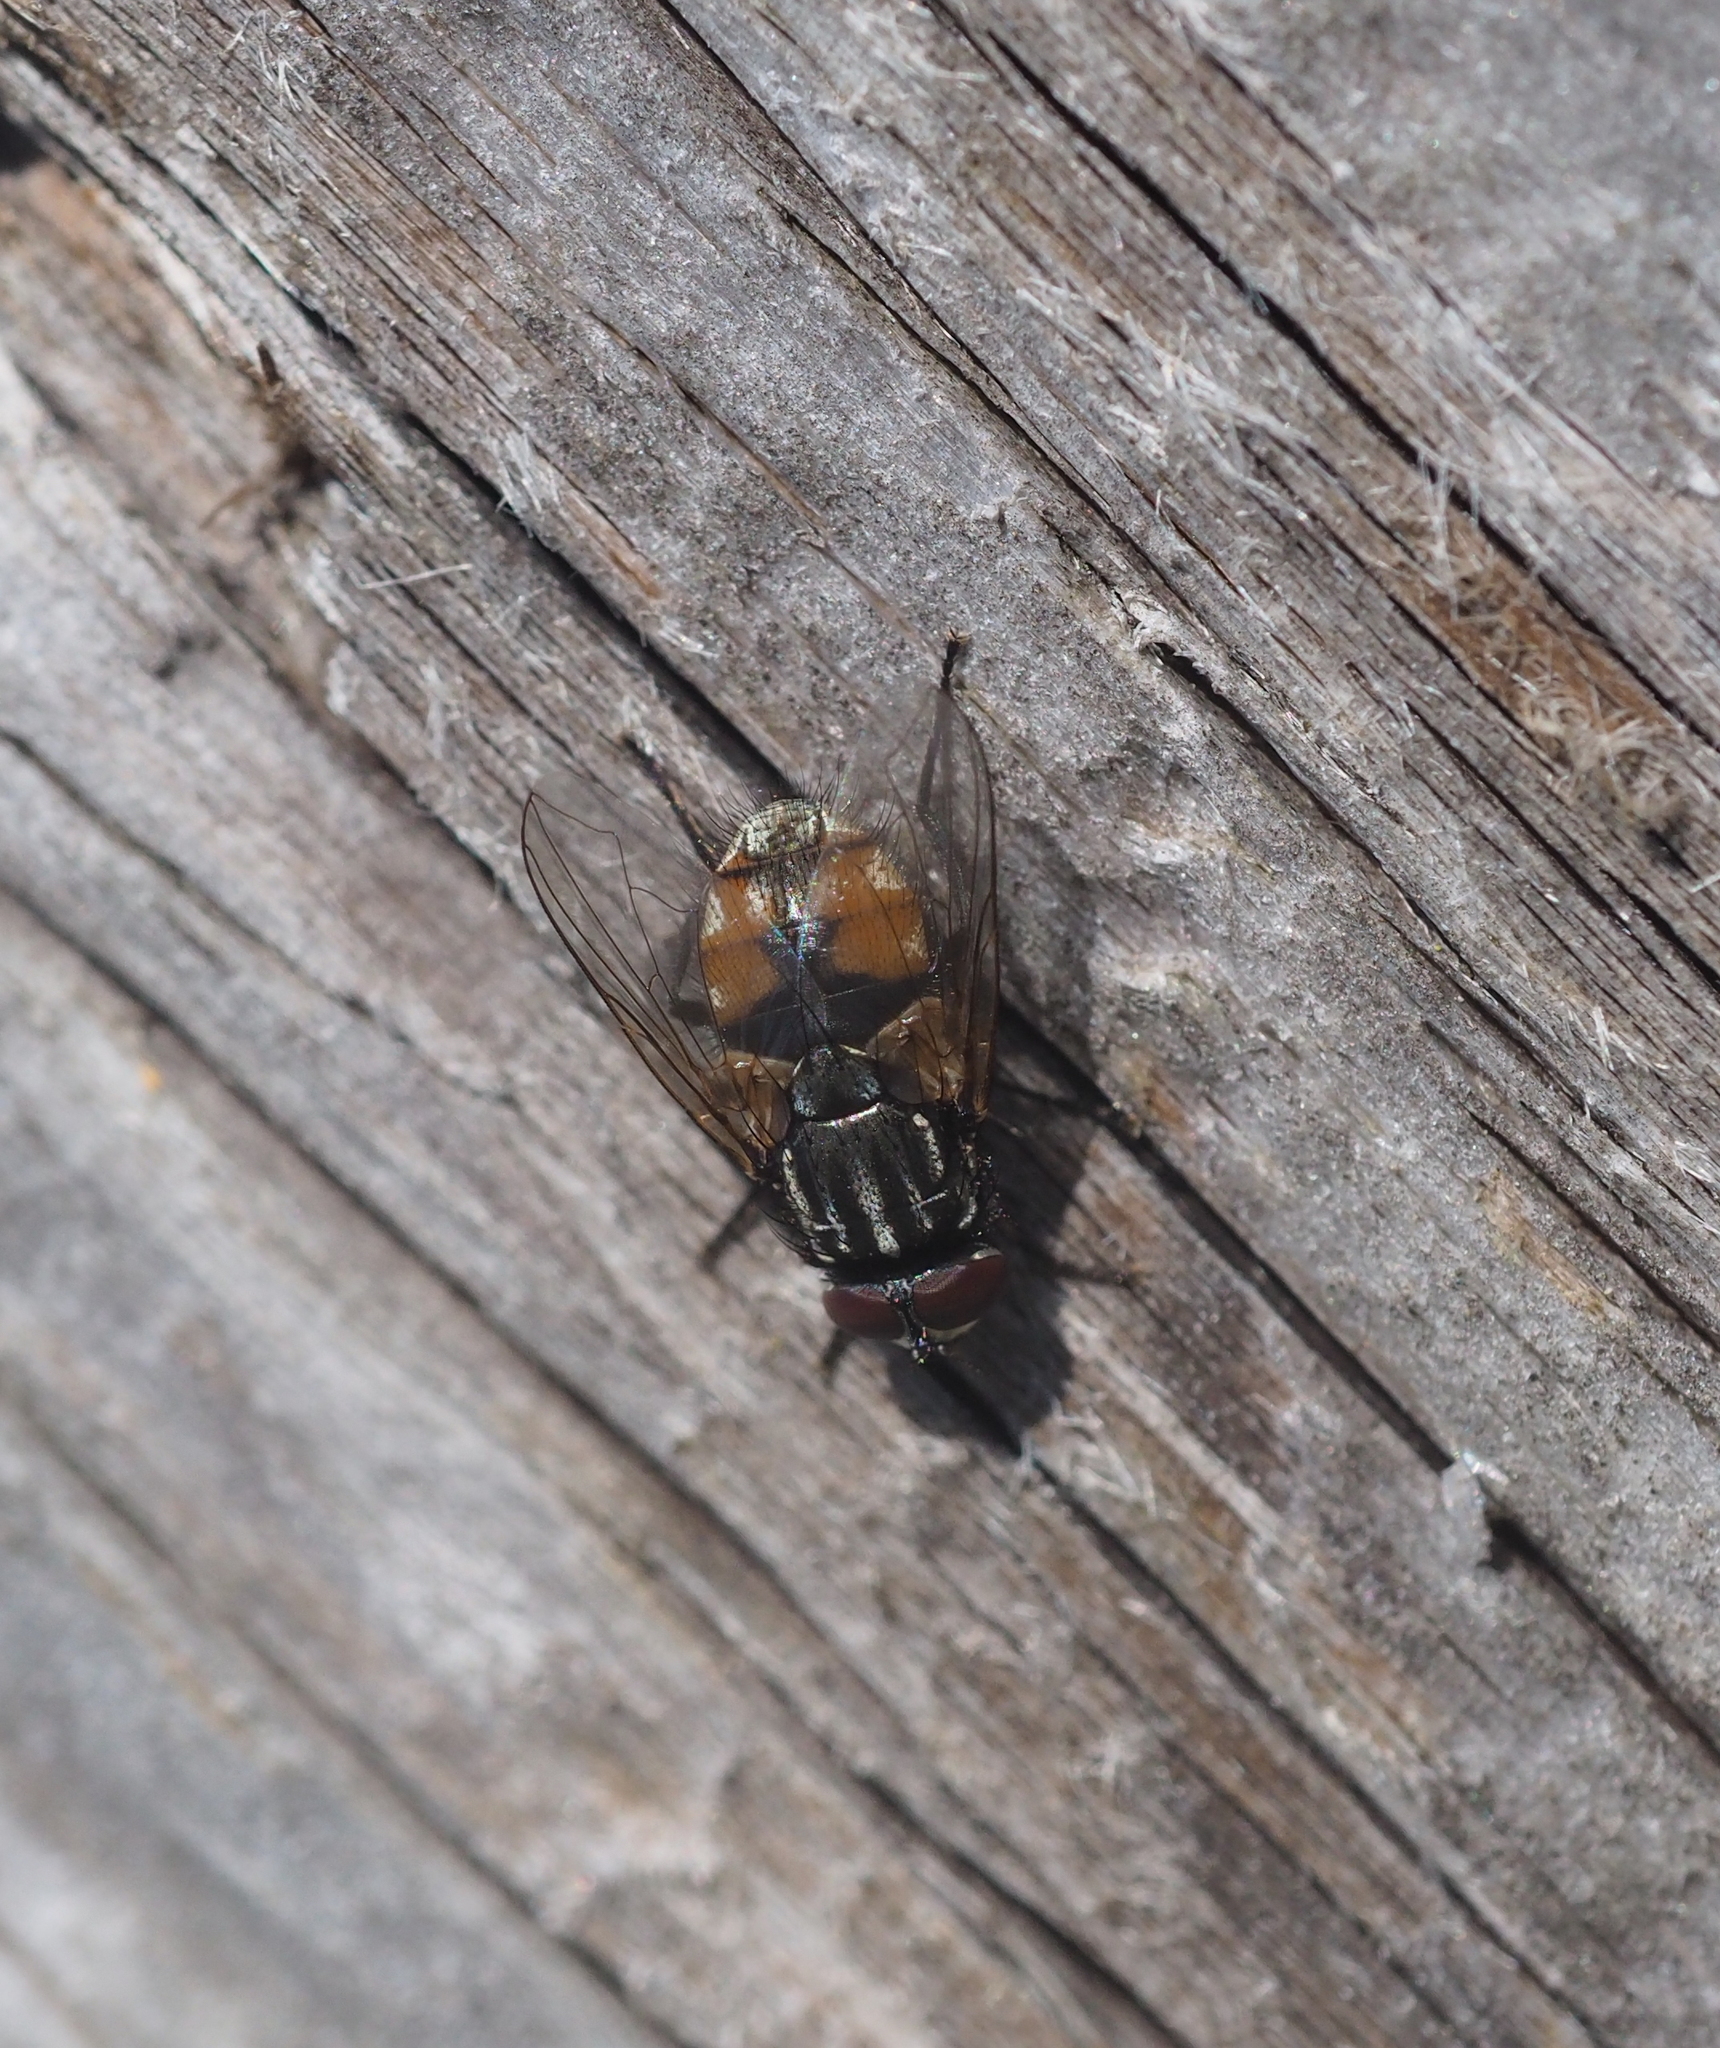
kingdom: Animalia
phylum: Arthropoda
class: Insecta
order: Diptera
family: Muscidae
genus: Musca
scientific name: Musca autumnalis
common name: Face fly
